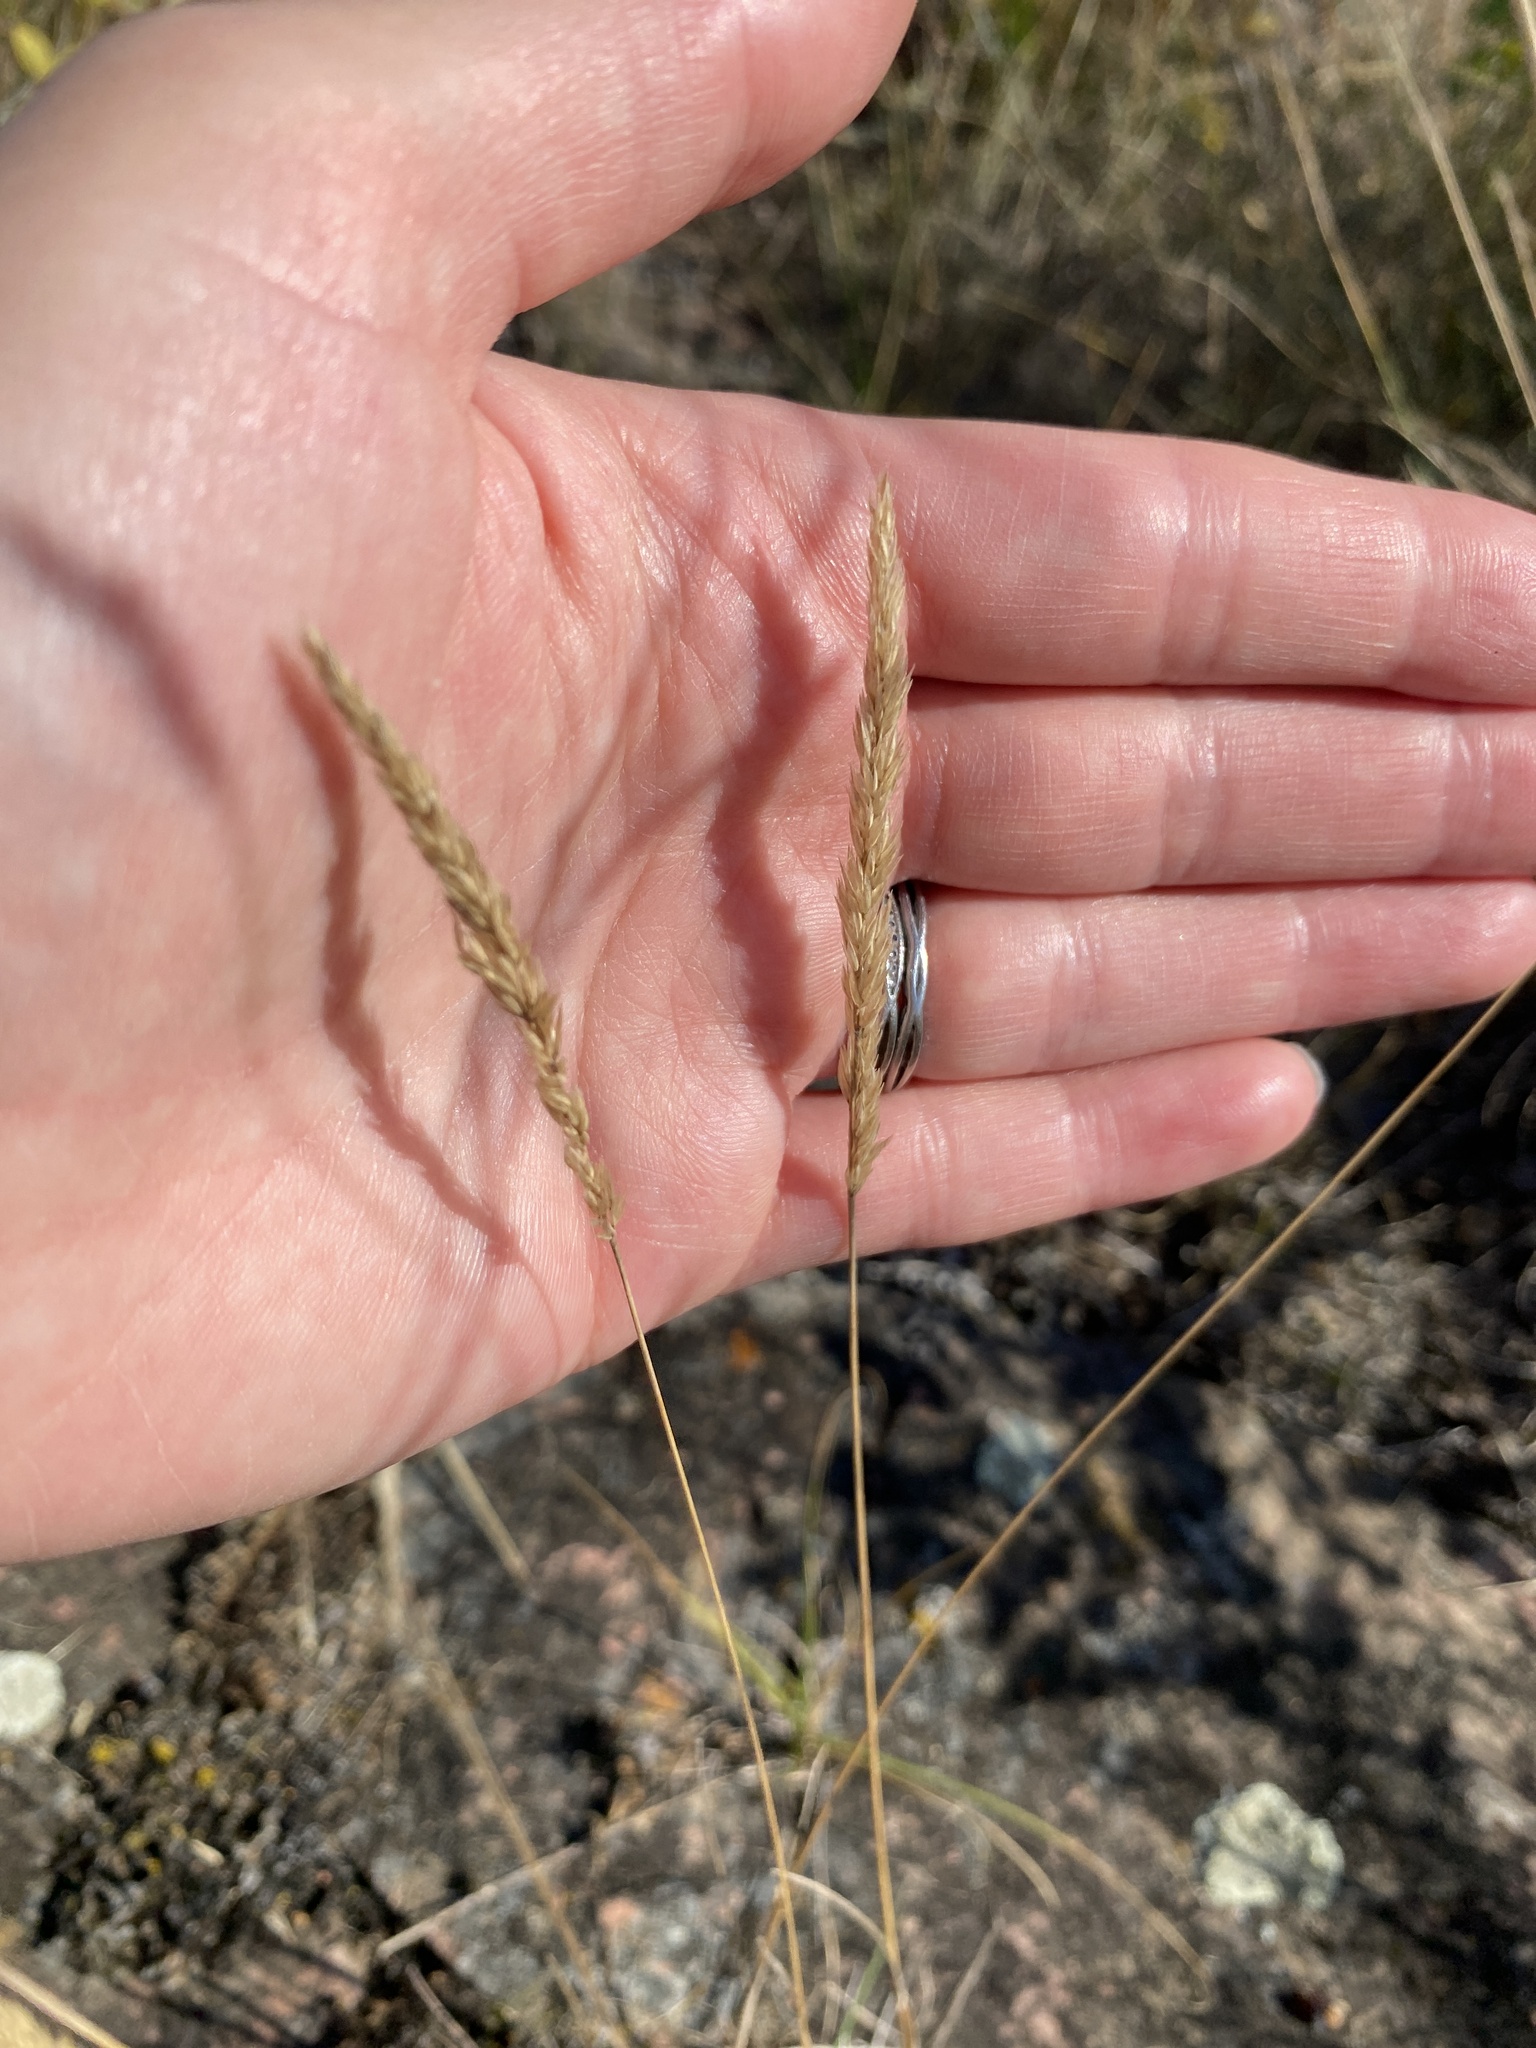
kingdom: Plantae
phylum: Tracheophyta
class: Liliopsida
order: Poales
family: Poaceae
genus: Koeleria
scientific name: Koeleria macrantha
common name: Crested hair-grass
